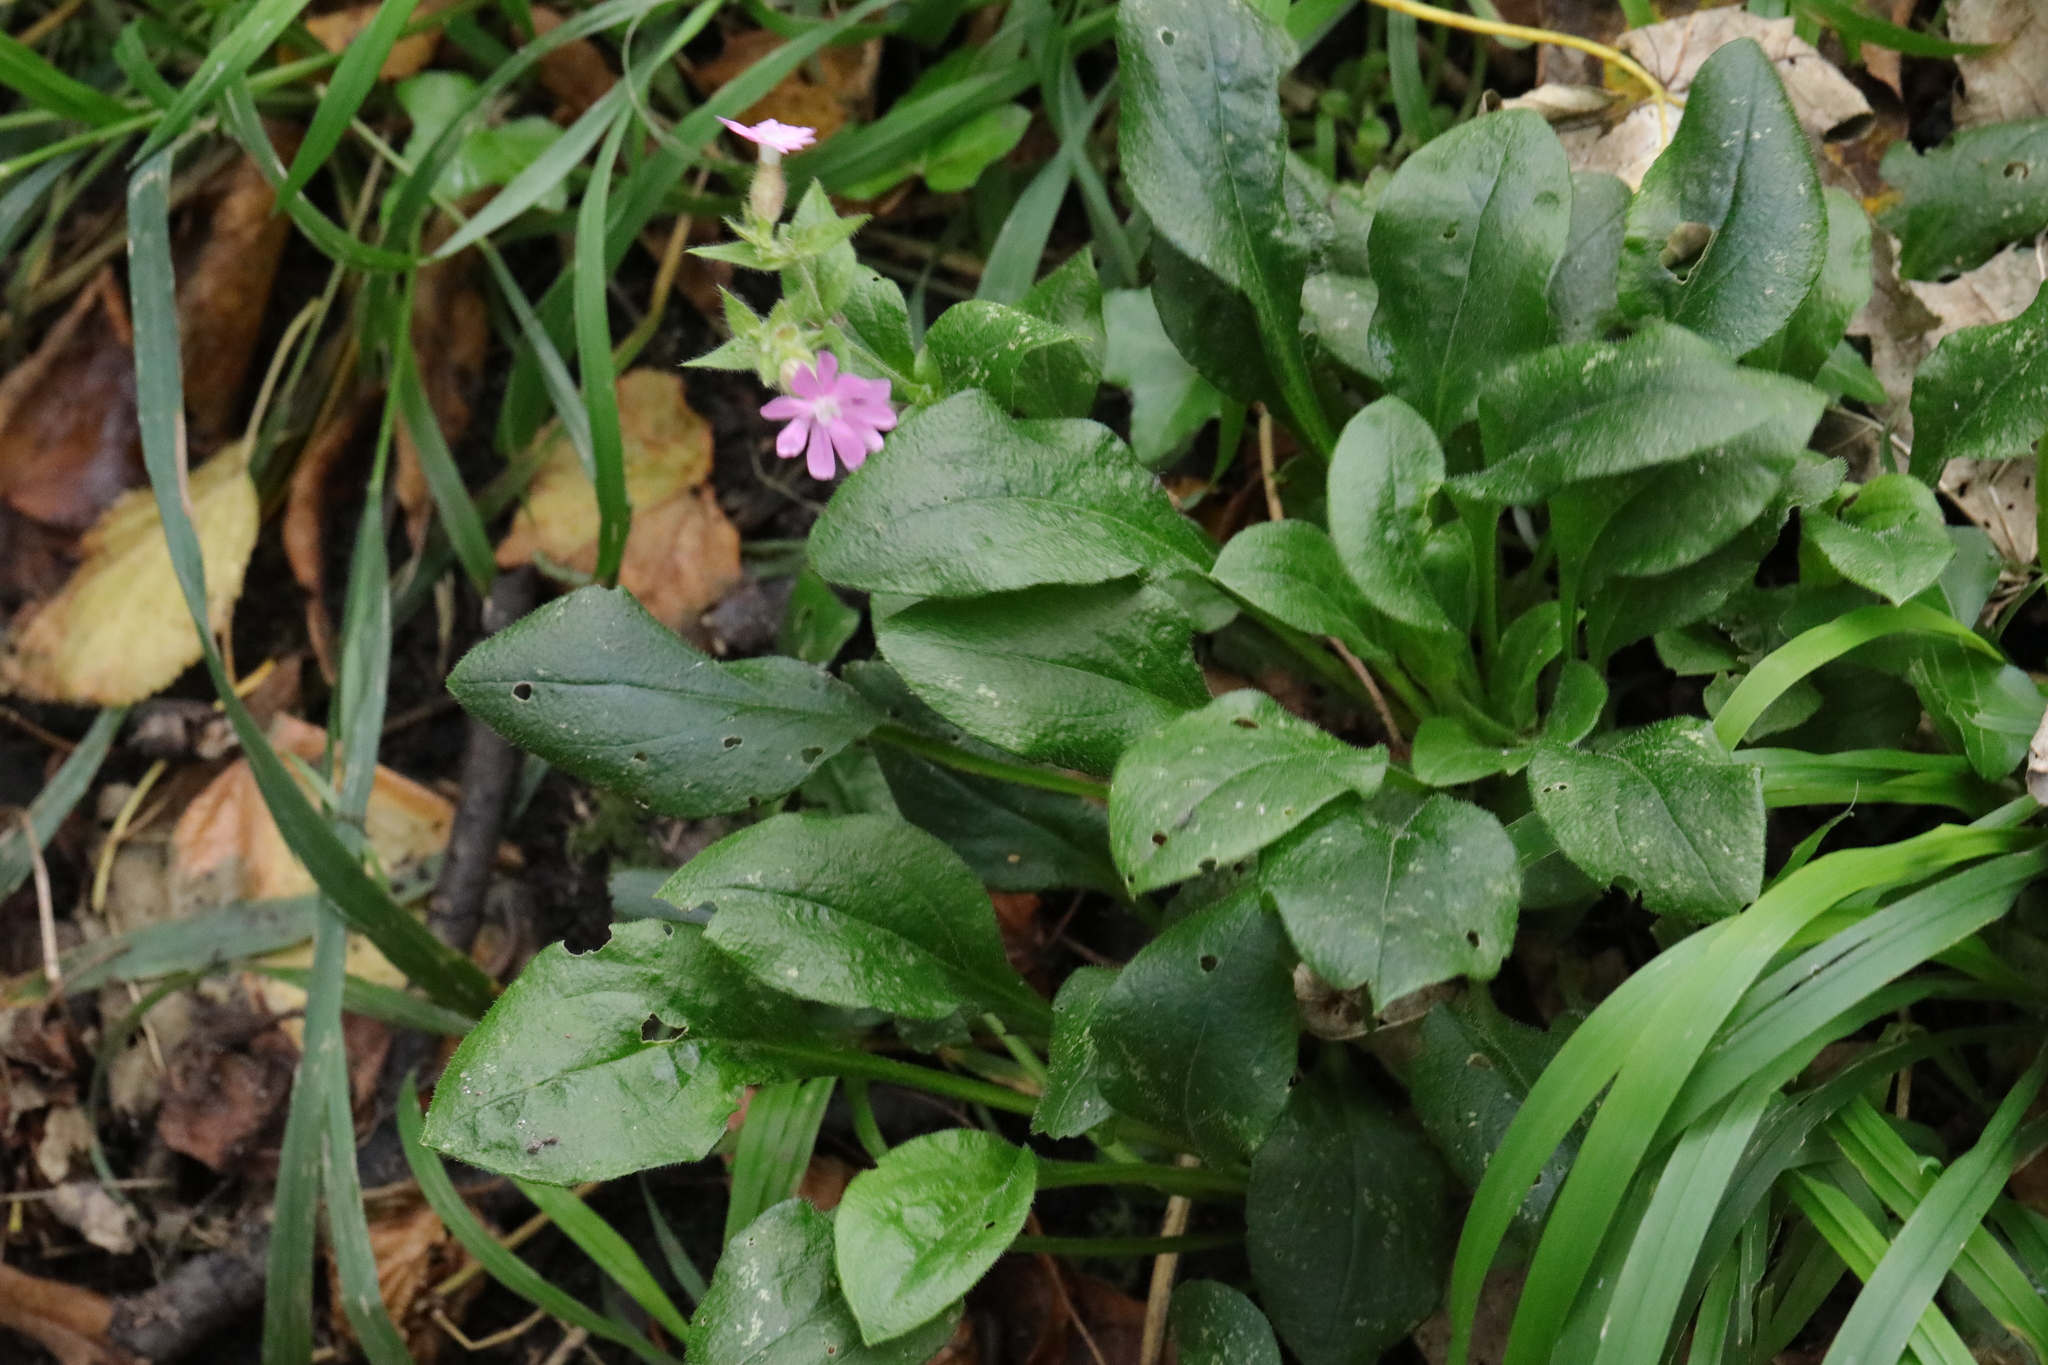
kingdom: Plantae
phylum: Tracheophyta
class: Magnoliopsida
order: Caryophyllales
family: Caryophyllaceae
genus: Silene
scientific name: Silene dioica
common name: Red campion
